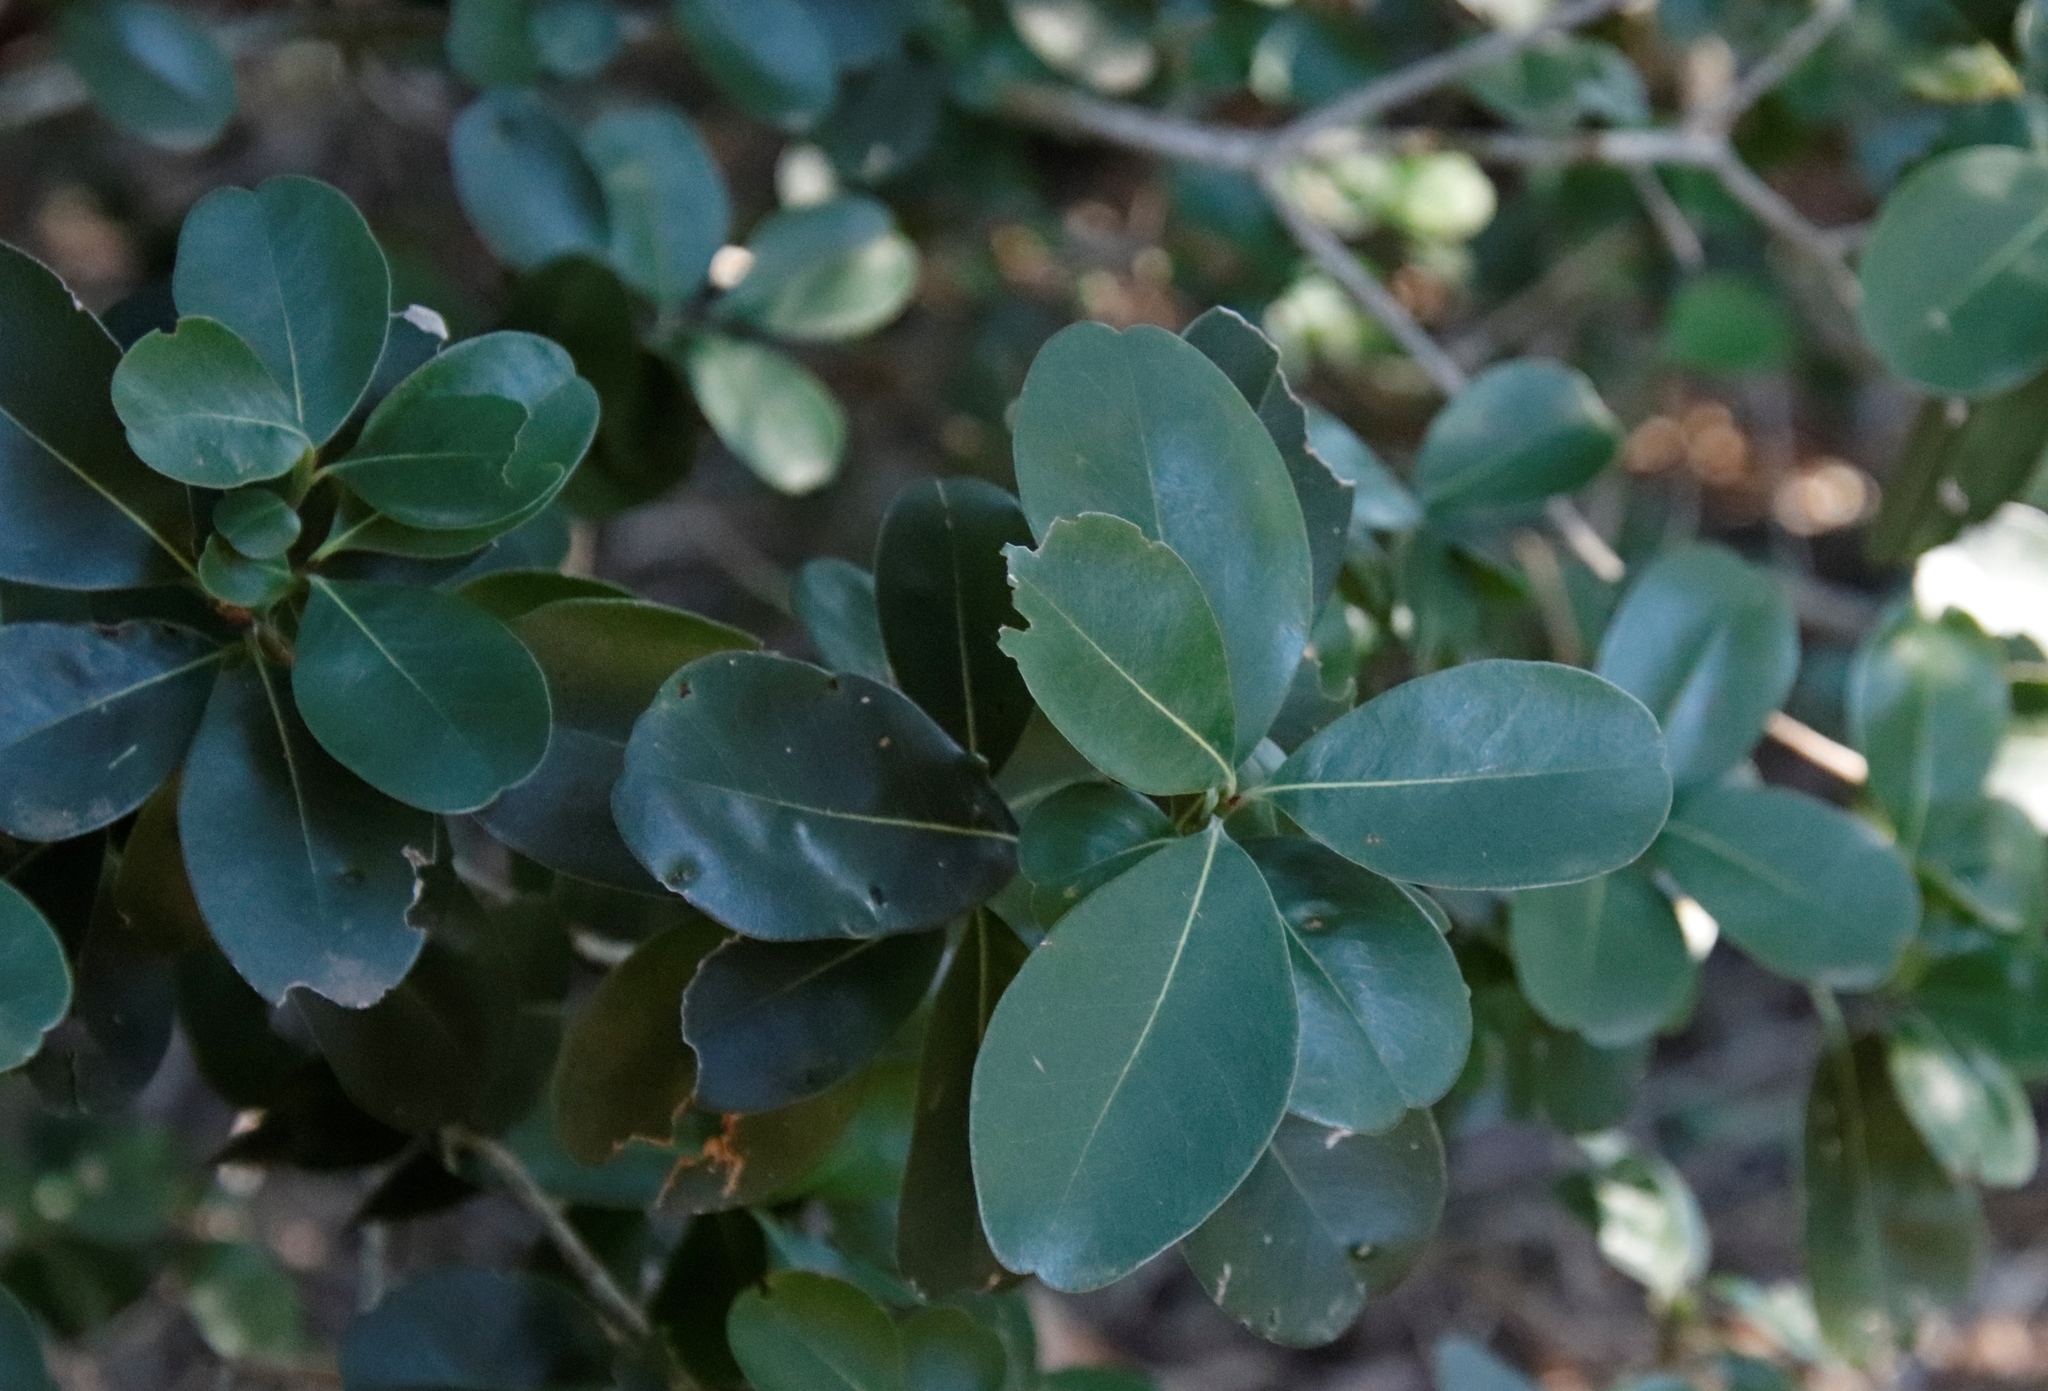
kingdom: Plantae
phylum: Tracheophyta
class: Magnoliopsida
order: Ericales
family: Sapotaceae
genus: Sideroxylon
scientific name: Sideroxylon inerme
